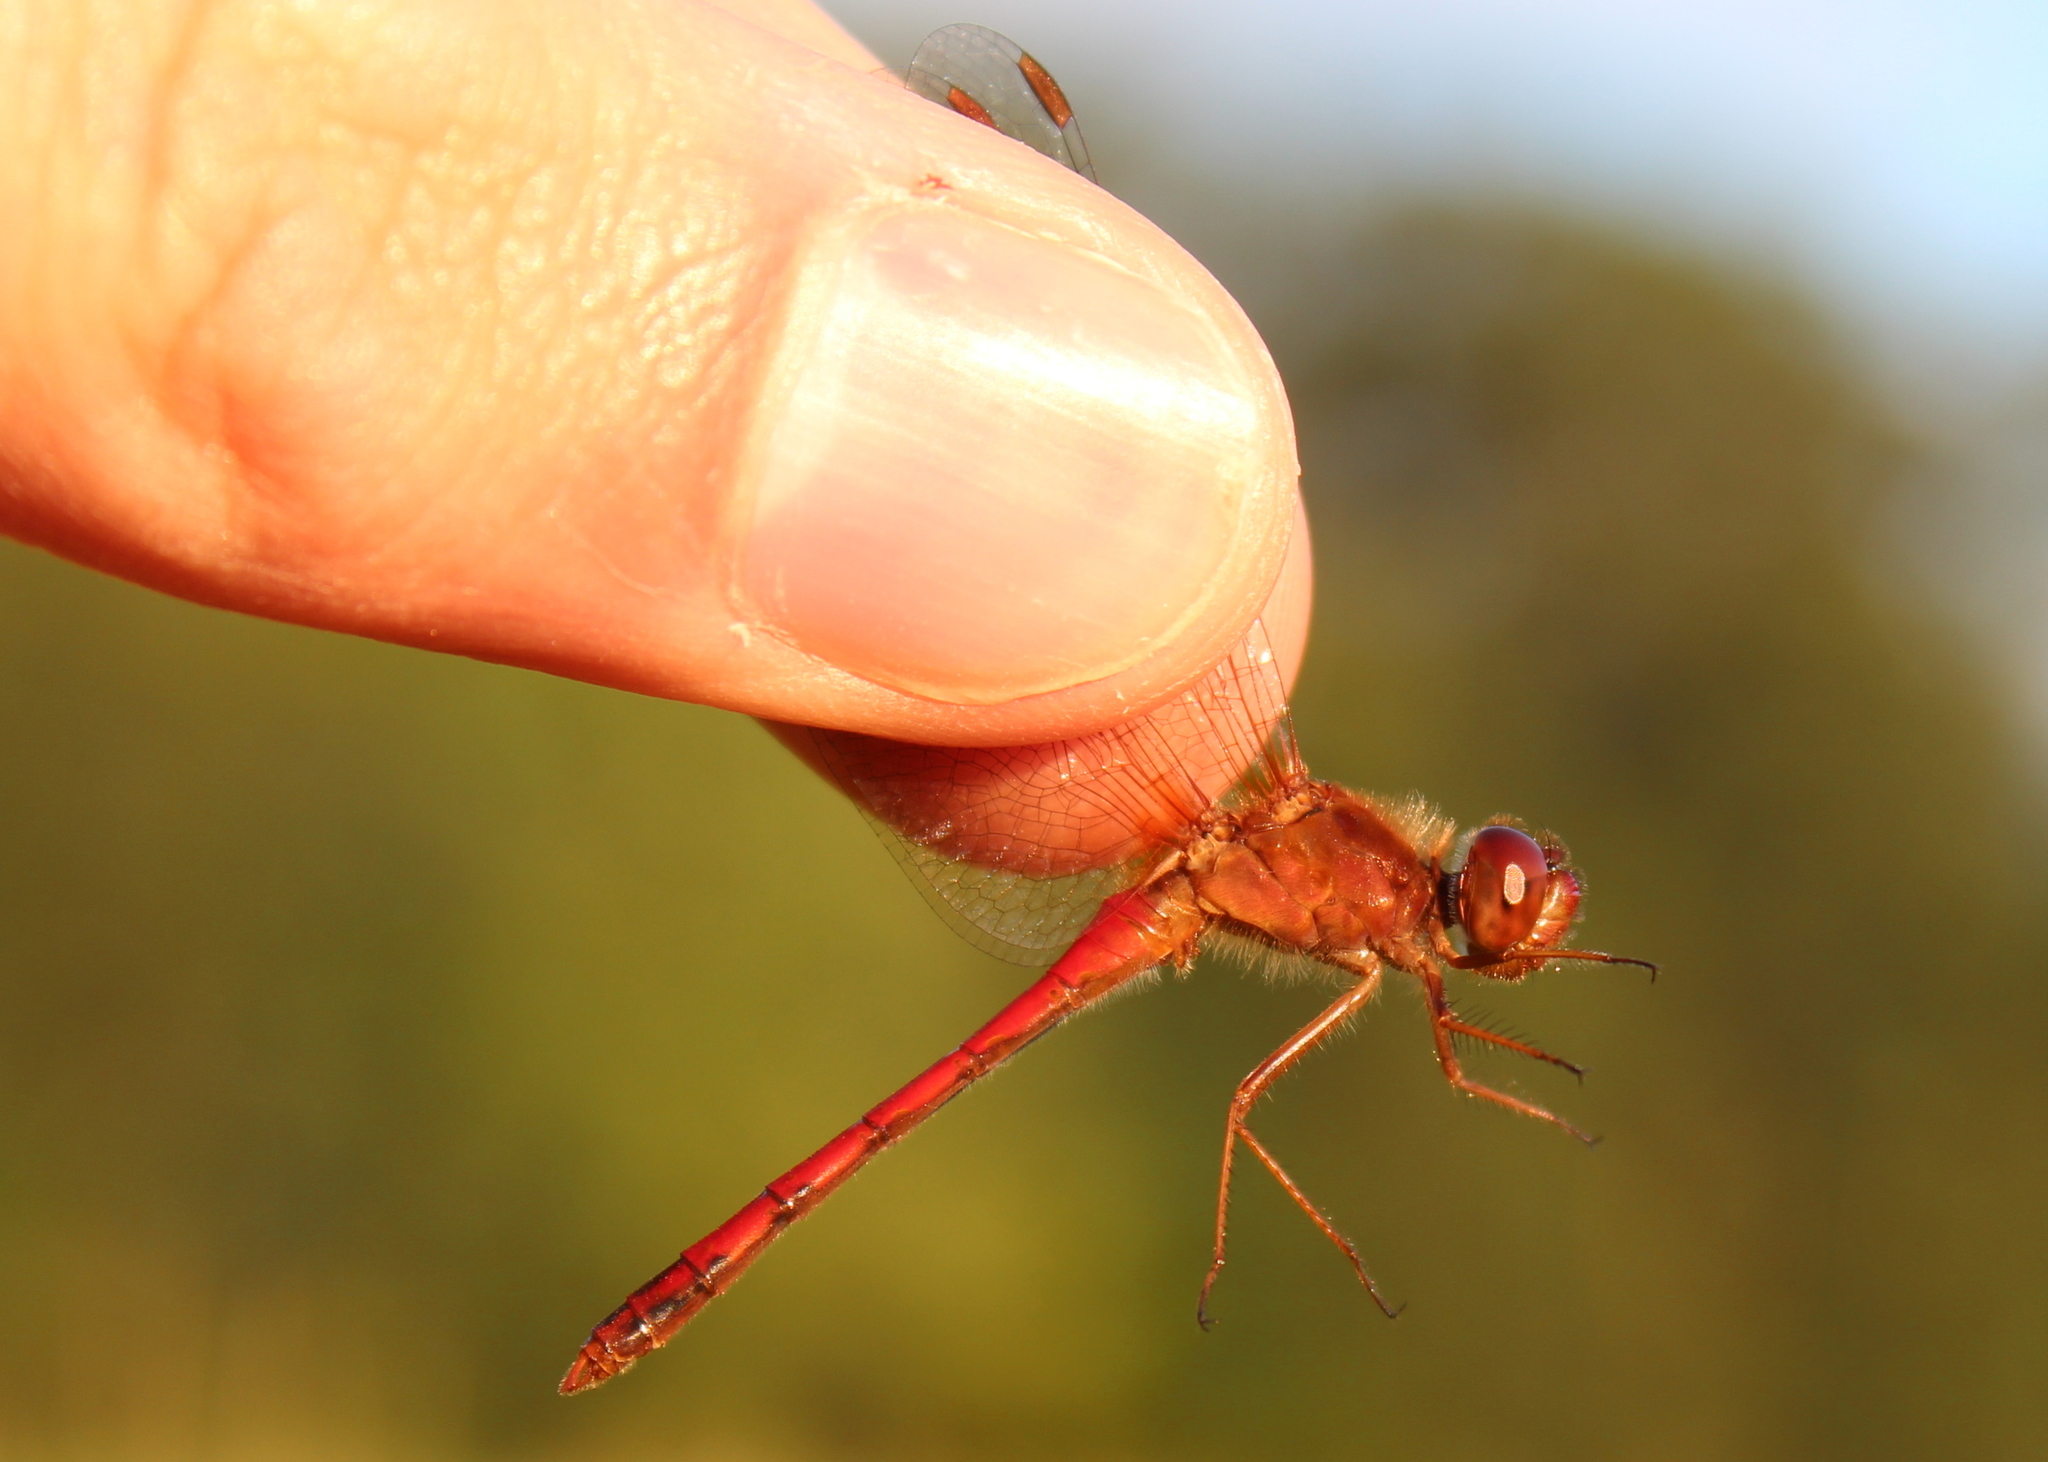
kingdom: Animalia
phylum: Arthropoda
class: Insecta
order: Odonata
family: Libellulidae
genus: Sympetrum
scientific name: Sympetrum vicinum
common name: Autumn meadowhawk
